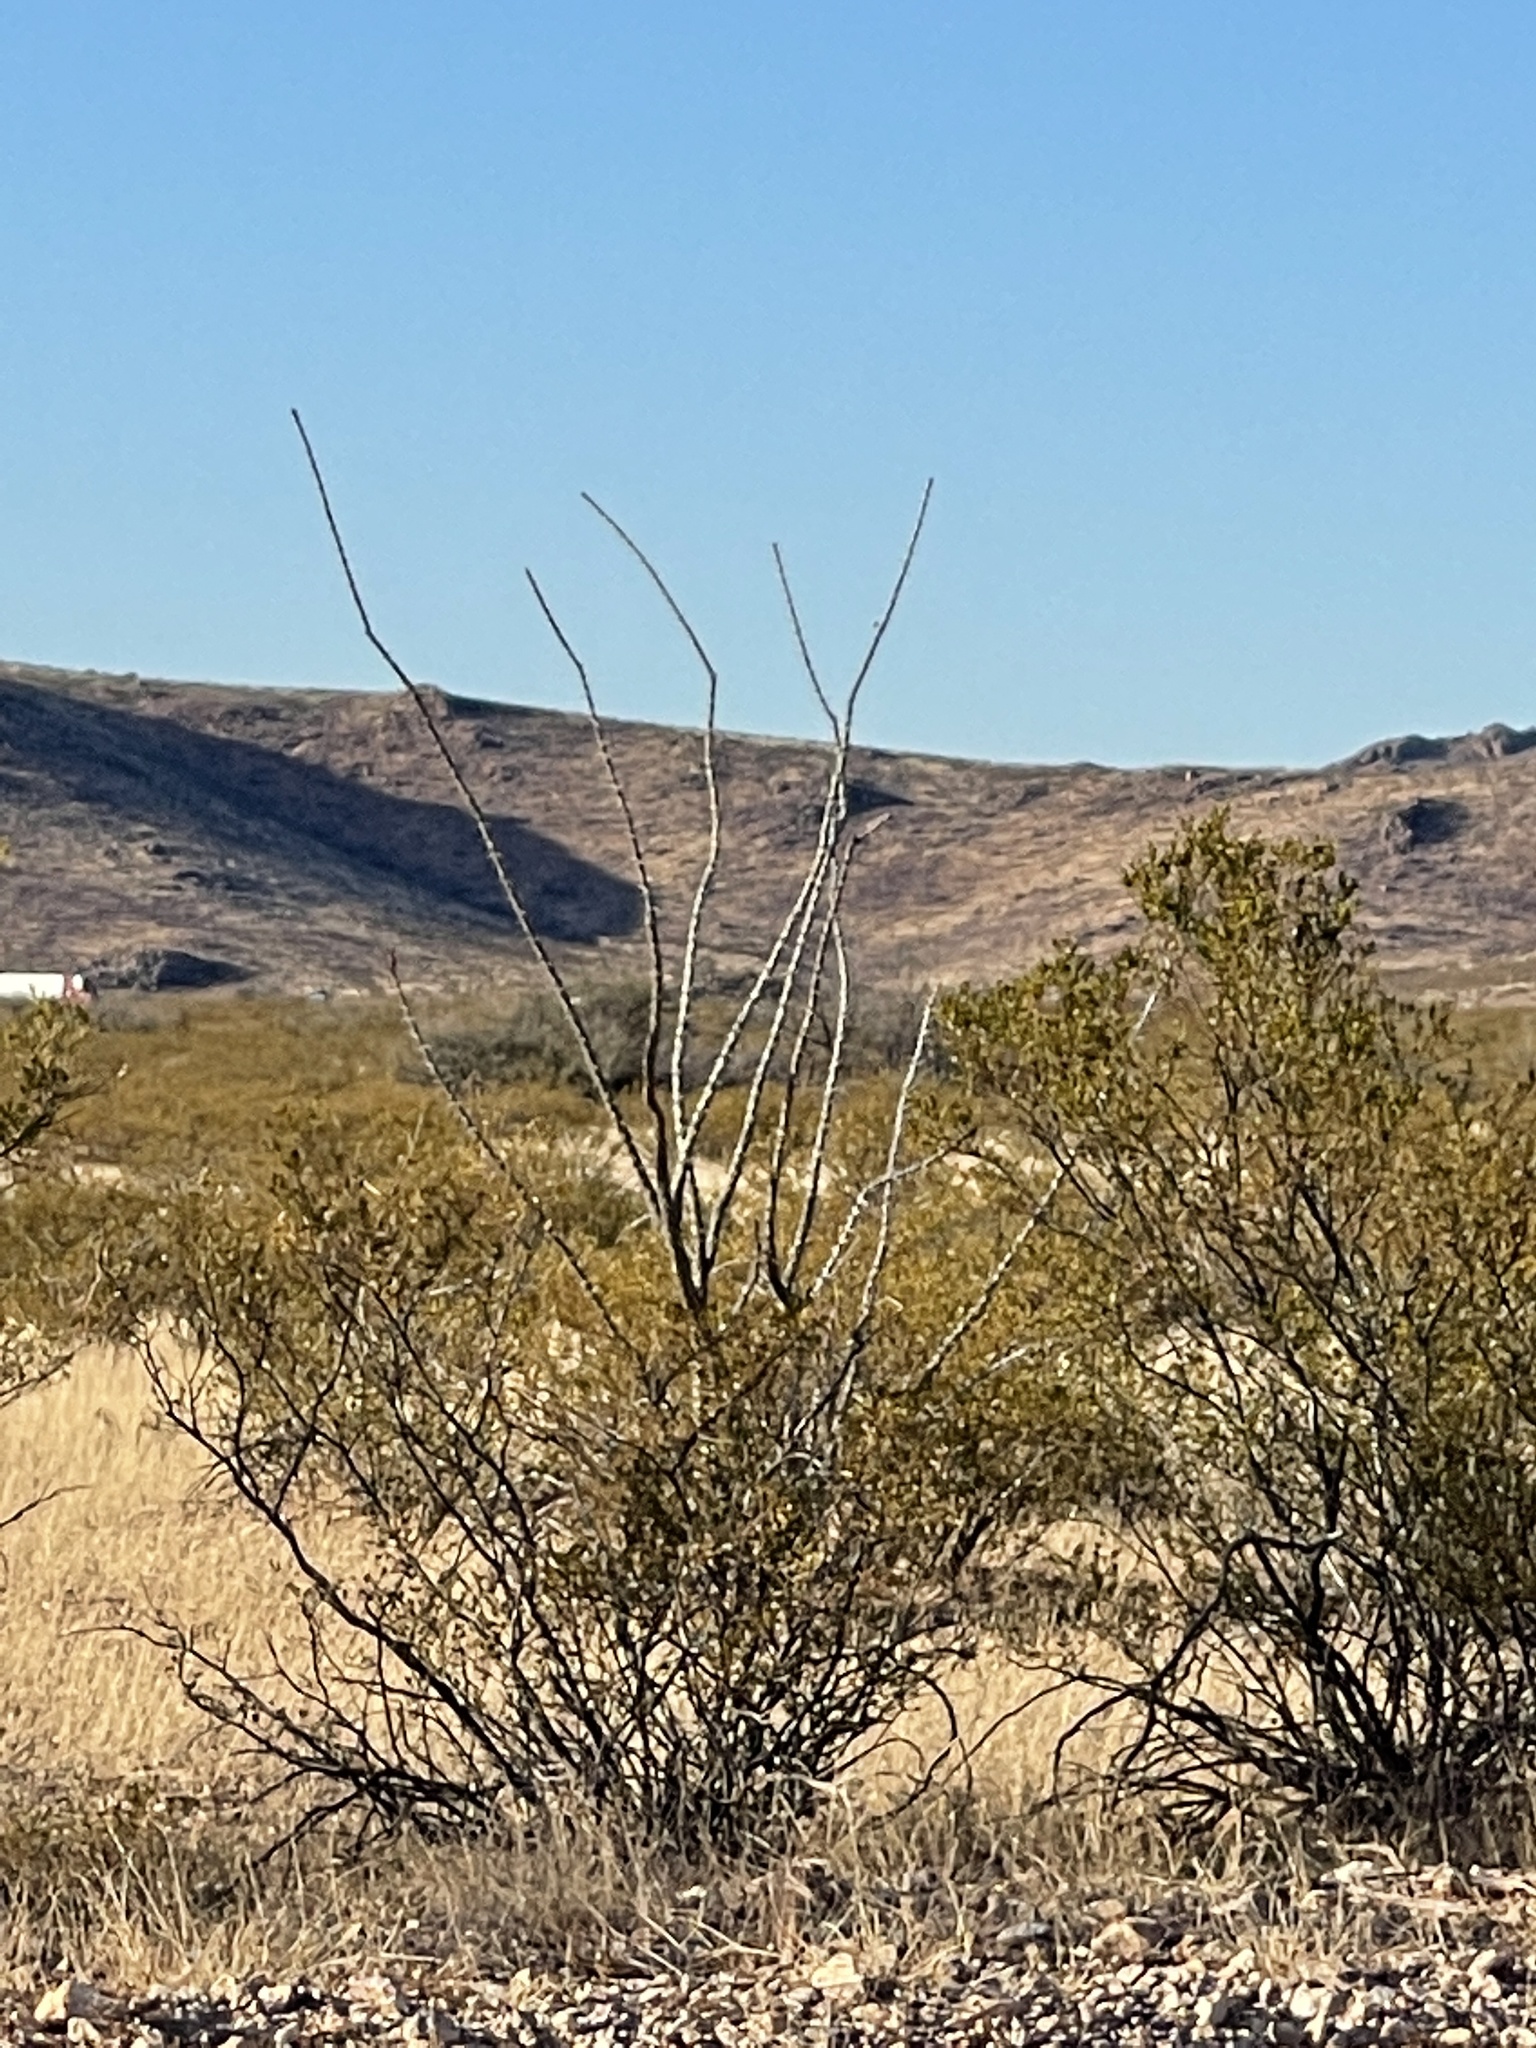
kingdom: Plantae
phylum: Tracheophyta
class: Magnoliopsida
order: Ericales
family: Fouquieriaceae
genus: Fouquieria
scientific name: Fouquieria splendens
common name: Vine-cactus
